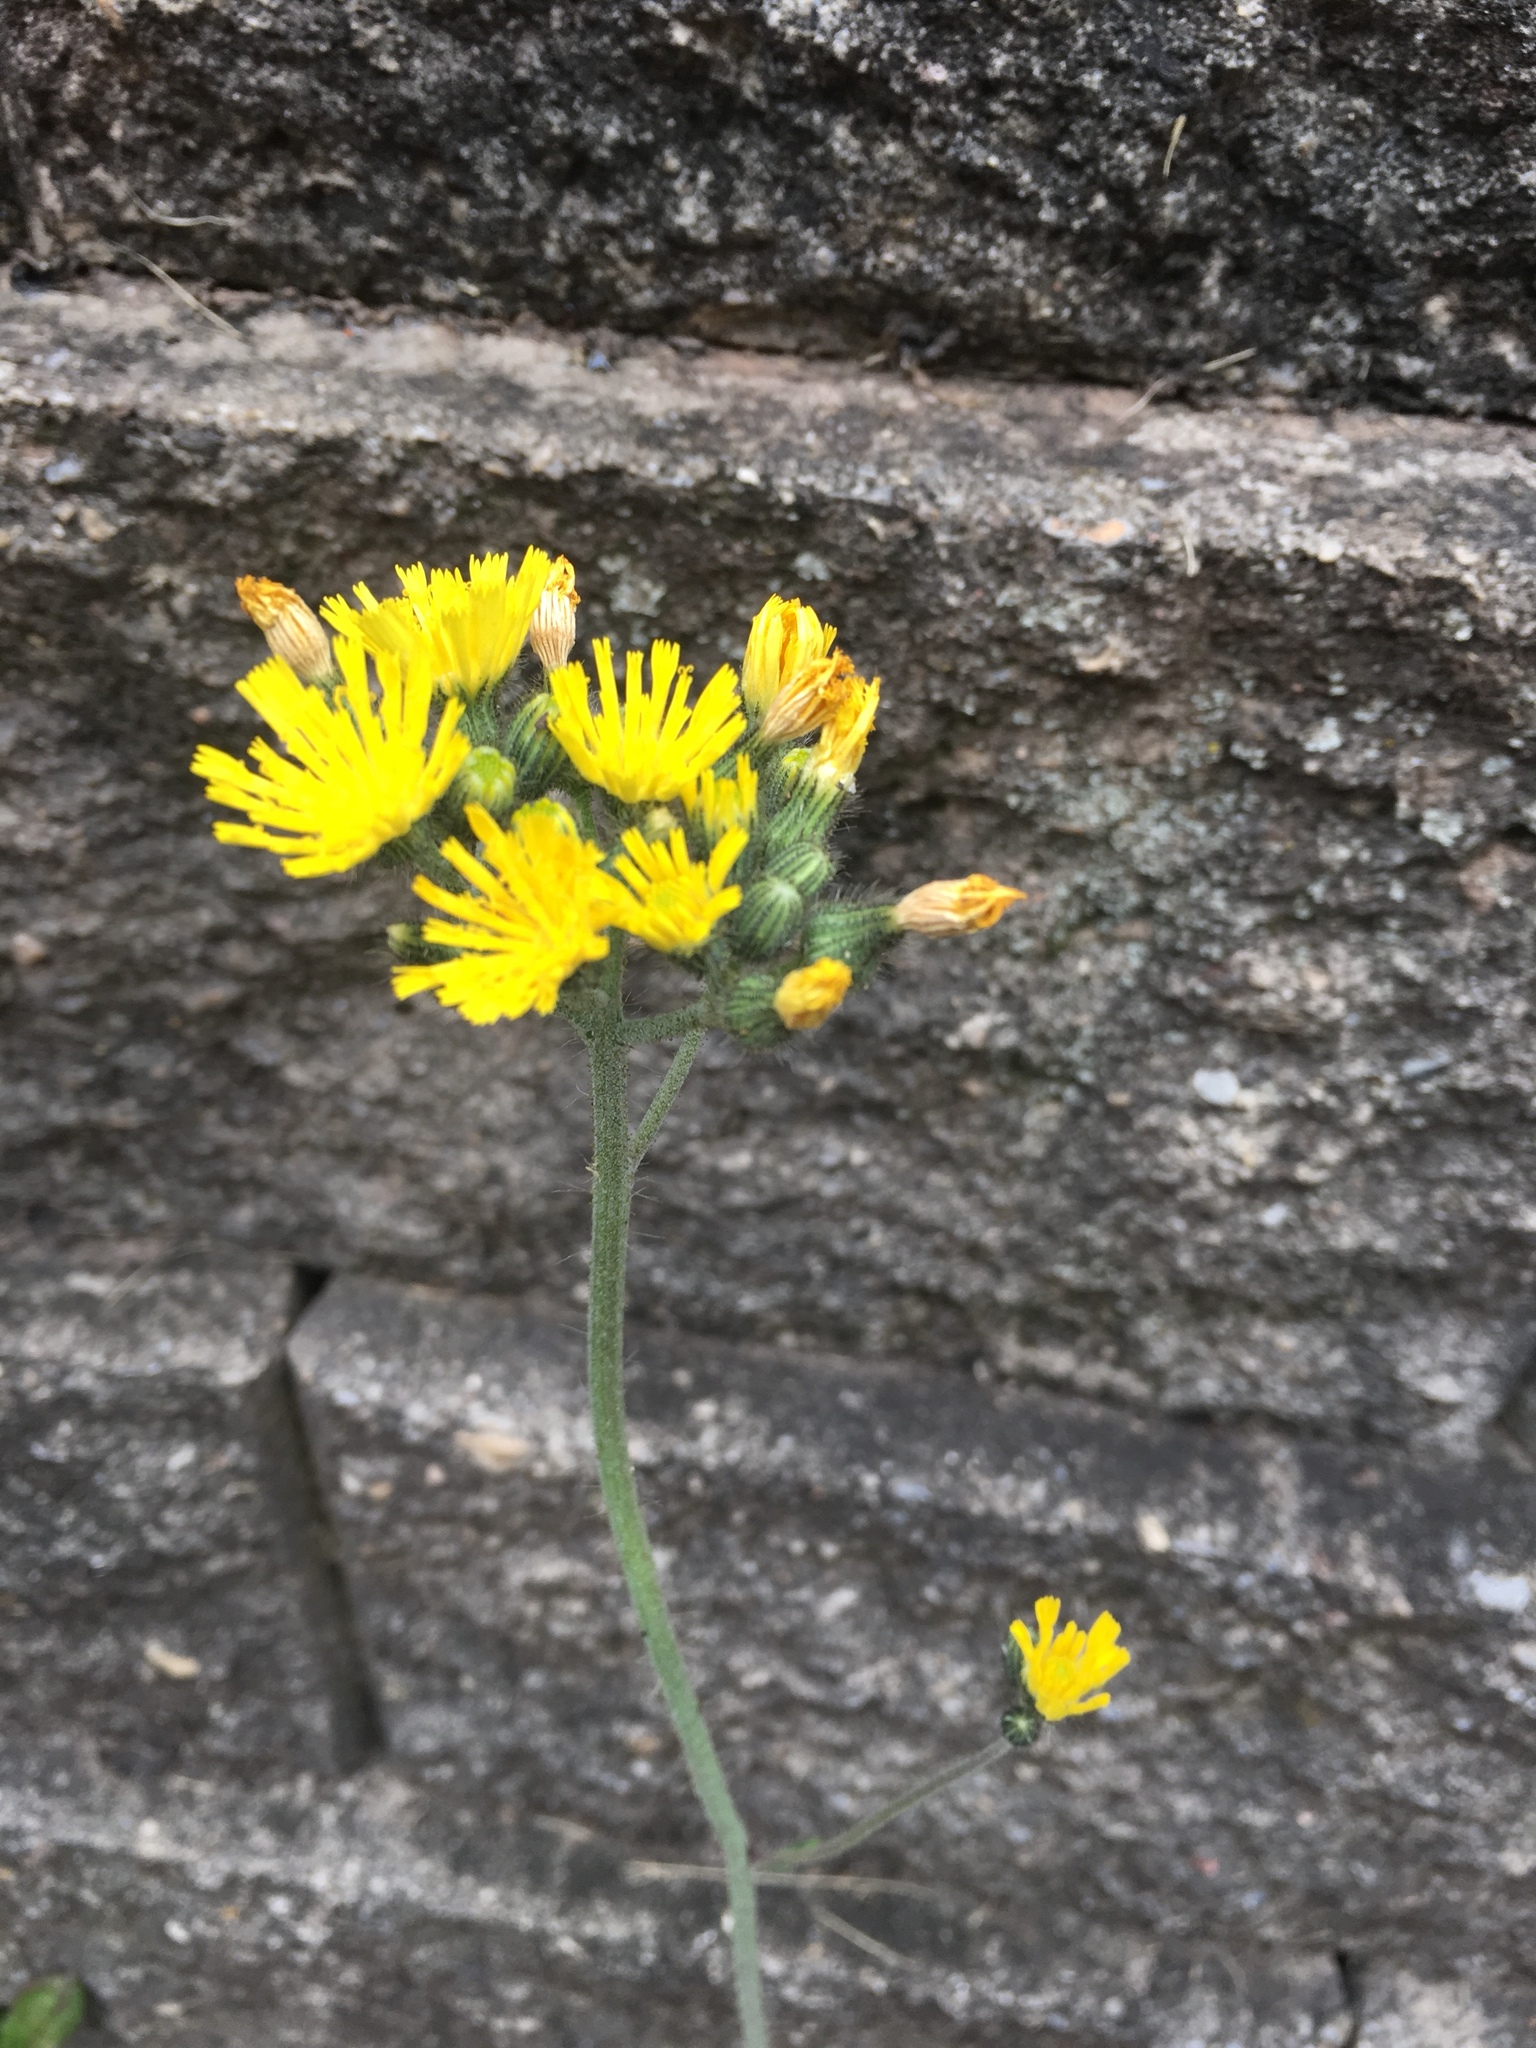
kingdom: Plantae
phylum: Tracheophyta
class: Magnoliopsida
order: Asterales
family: Asteraceae
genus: Pilosella
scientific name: Pilosella caespitosa
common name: Yellow fox-and-cubs
